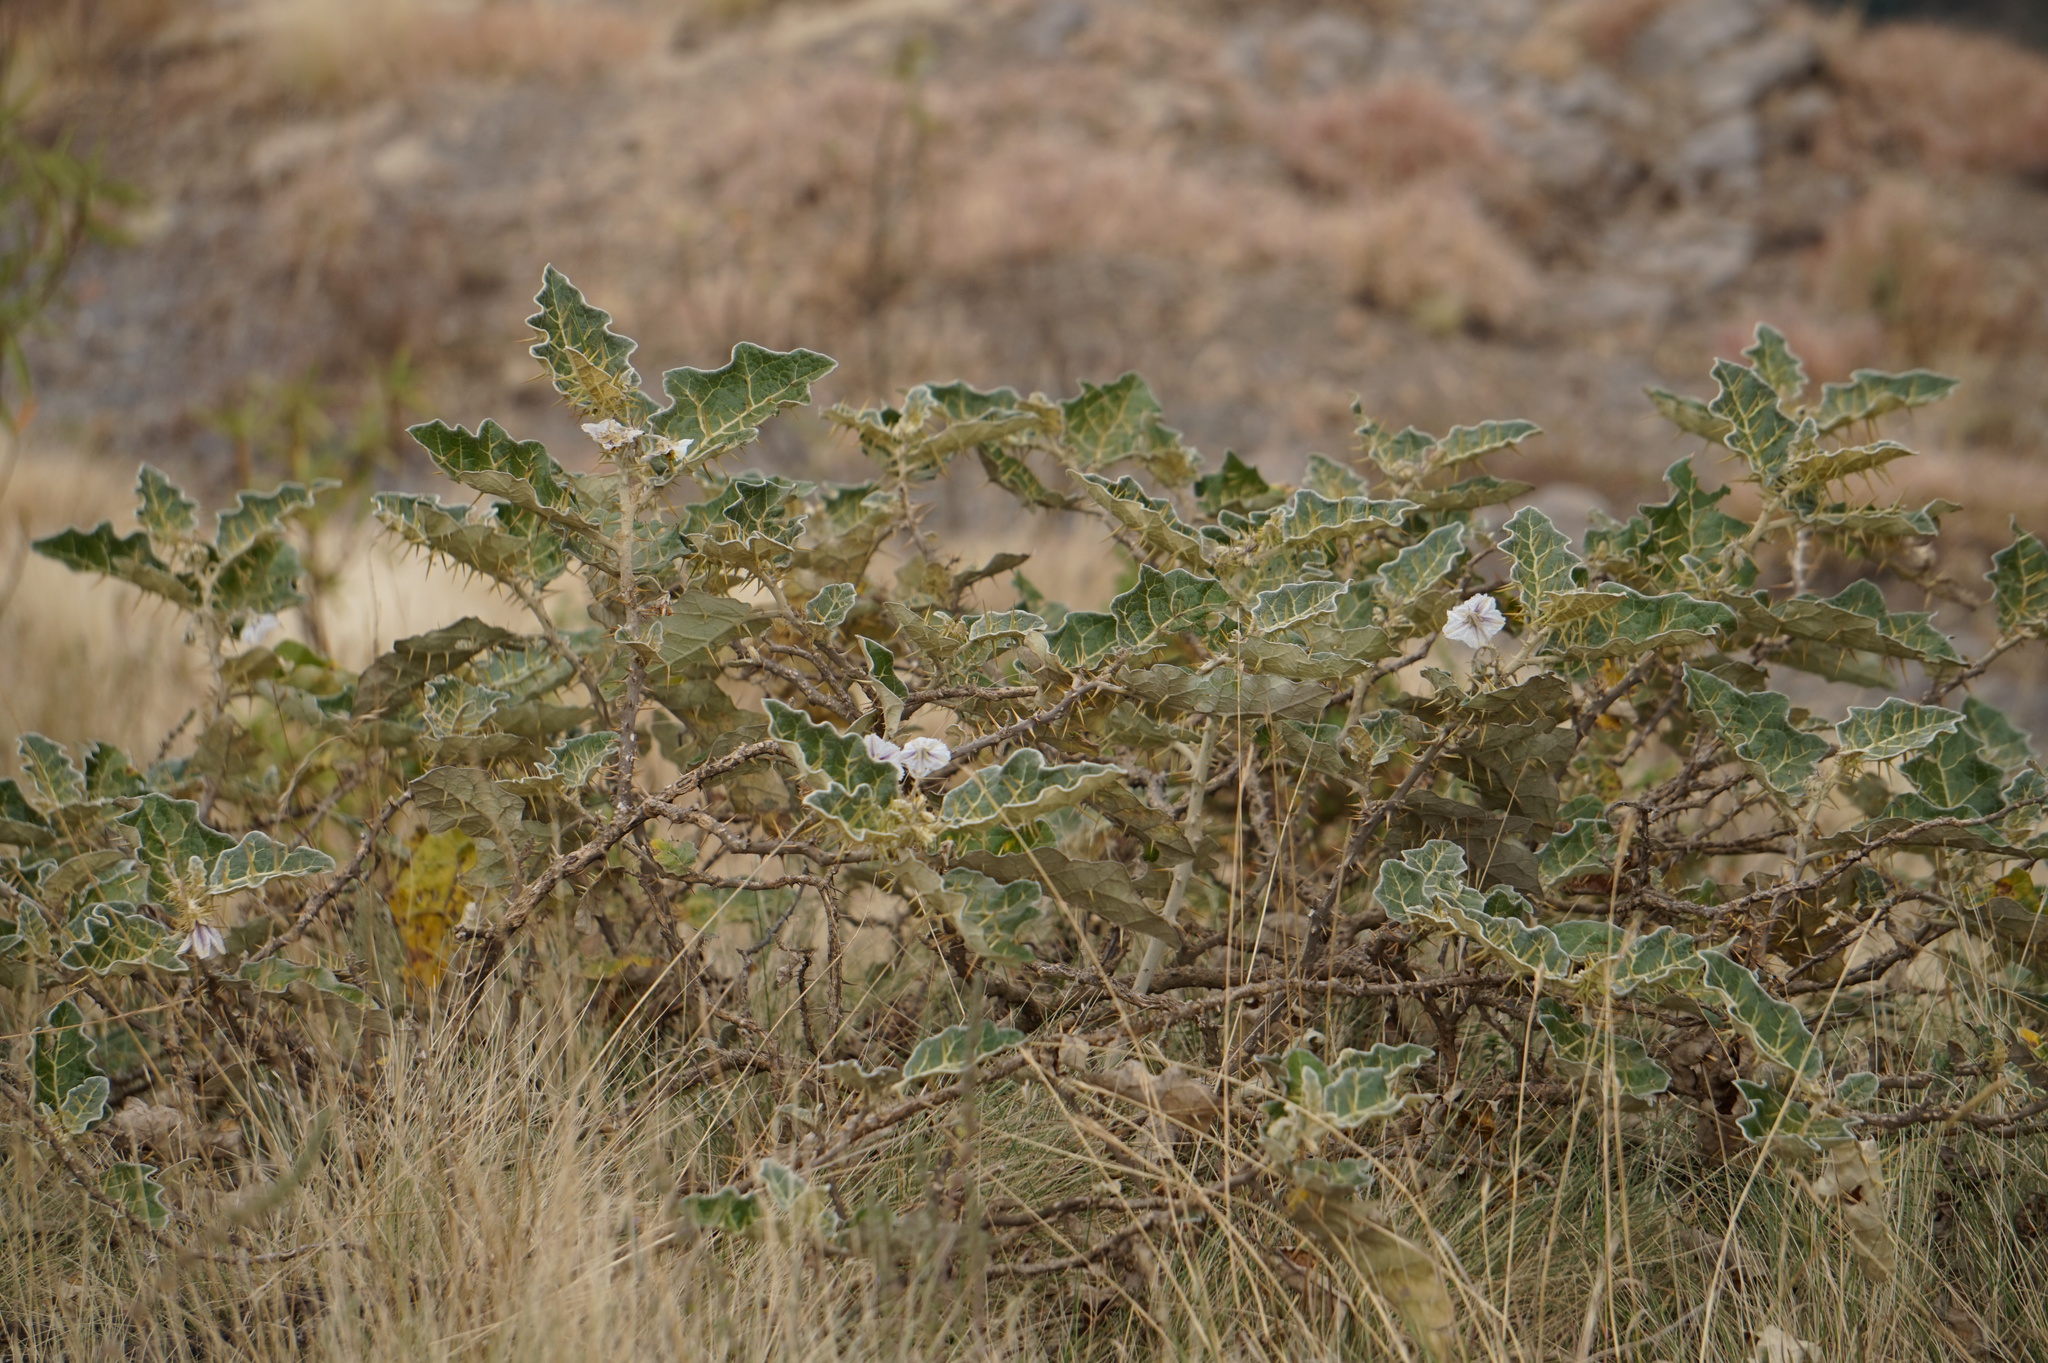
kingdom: Plantae
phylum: Tracheophyta
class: Magnoliopsida
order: Solanales
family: Solanaceae
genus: Solanum
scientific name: Solanum marginatum
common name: Purple african nightshade
